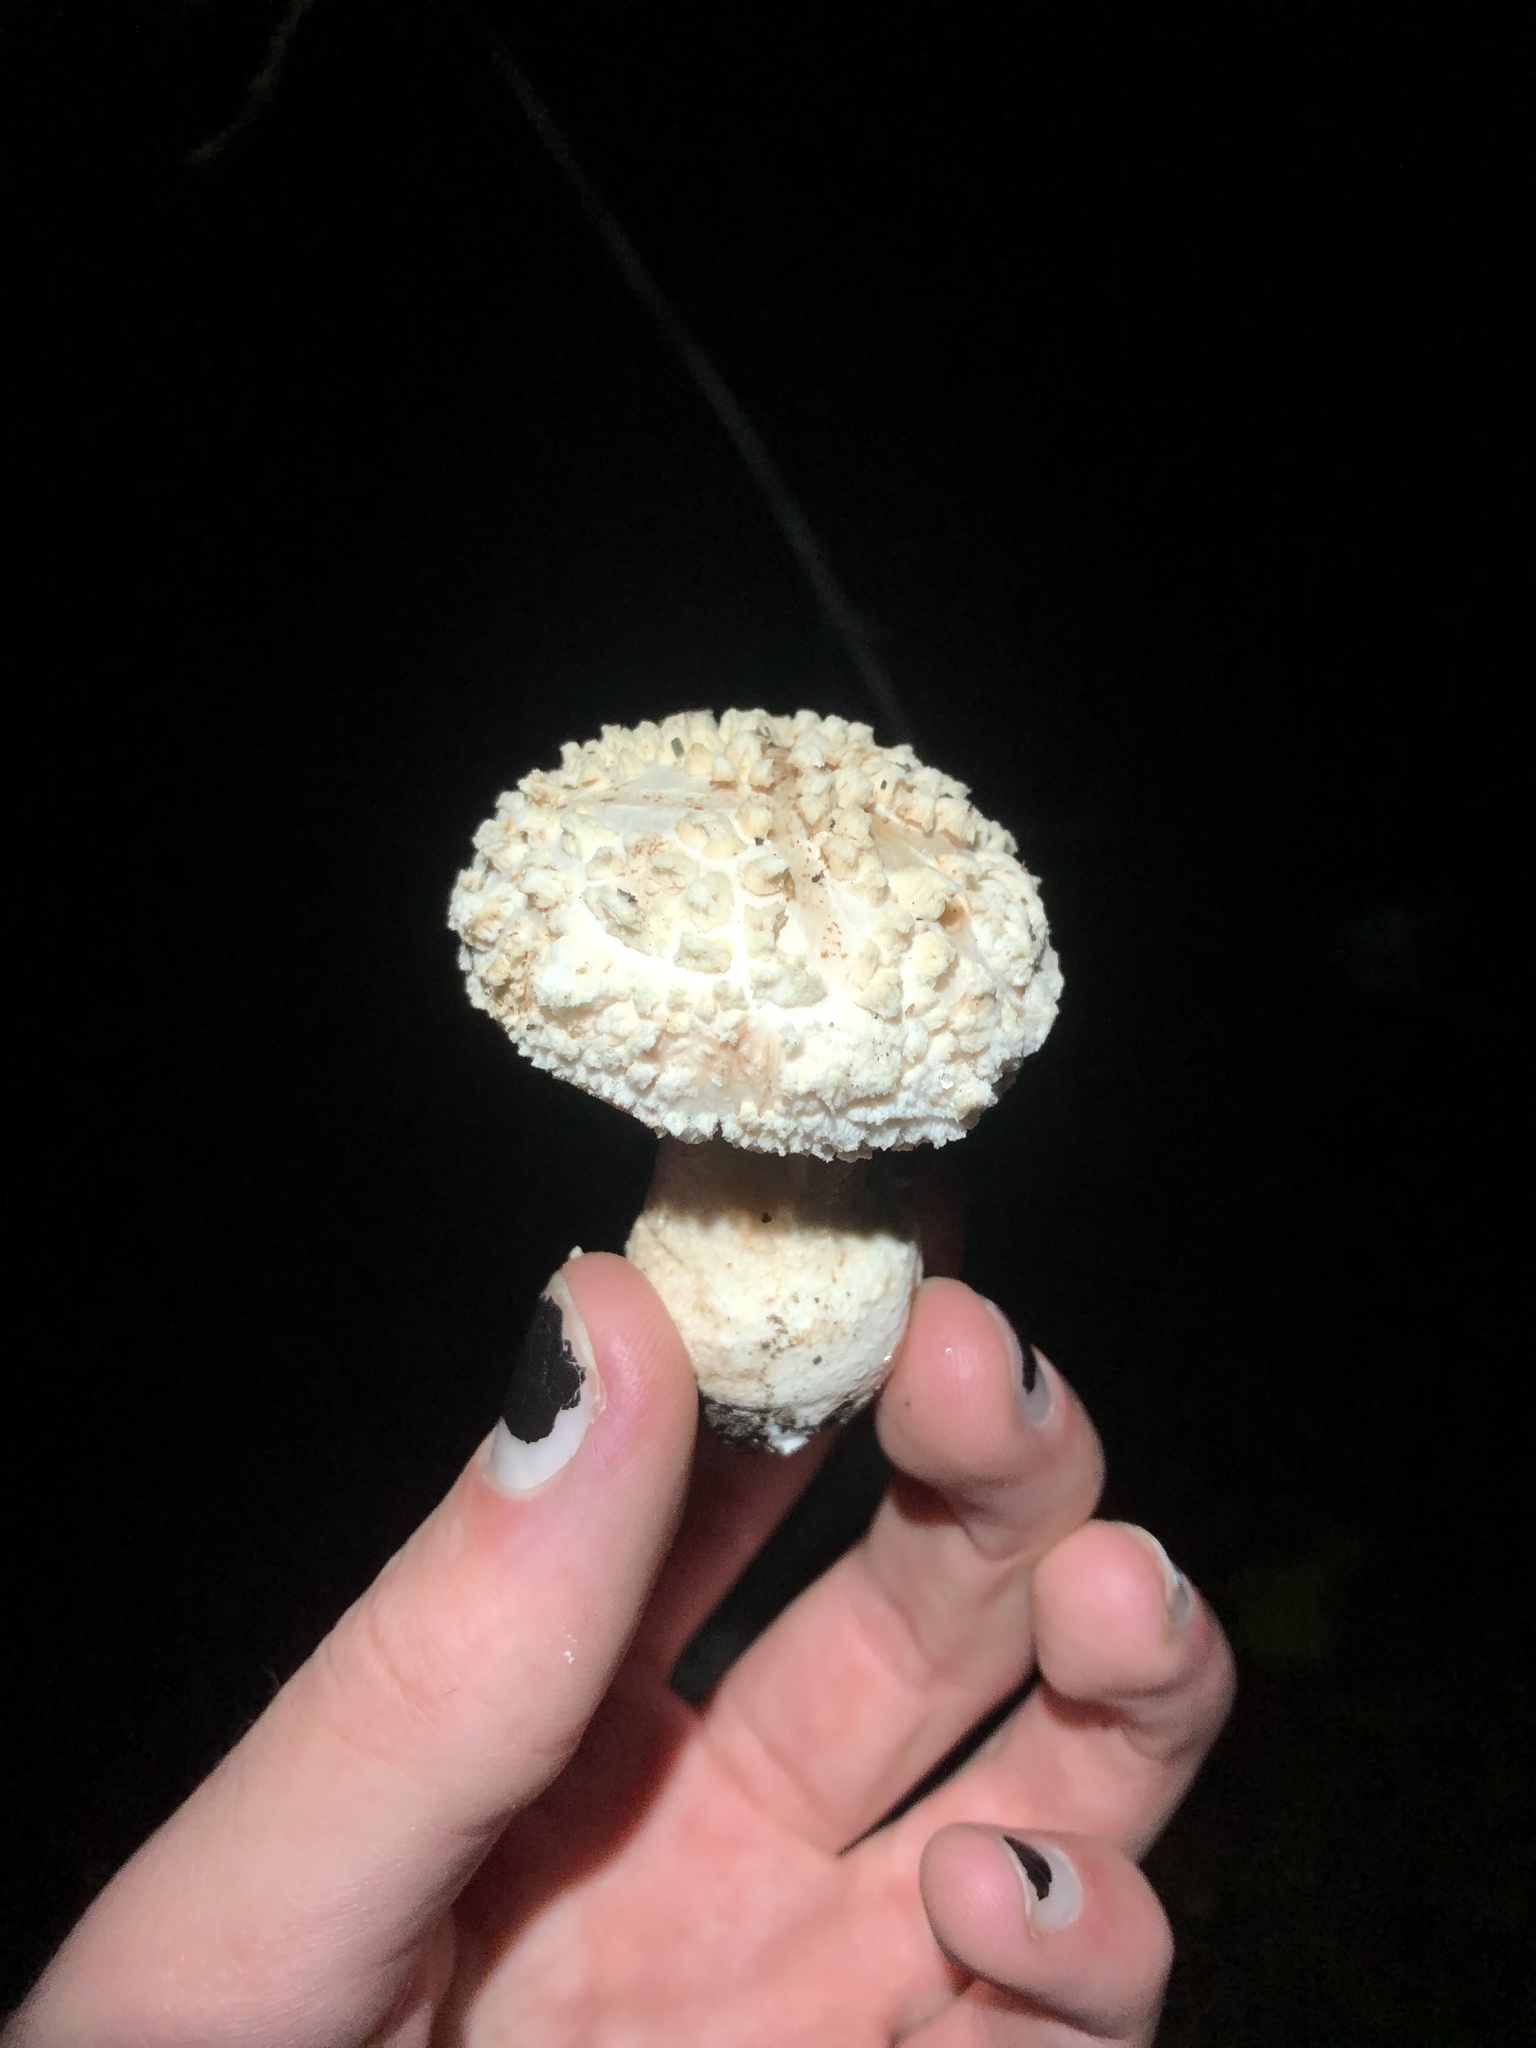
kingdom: Fungi
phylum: Basidiomycota
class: Agaricomycetes
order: Agaricales
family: Amanitaceae
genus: Amanita
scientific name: Amanita novinupta
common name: Blushing bride
